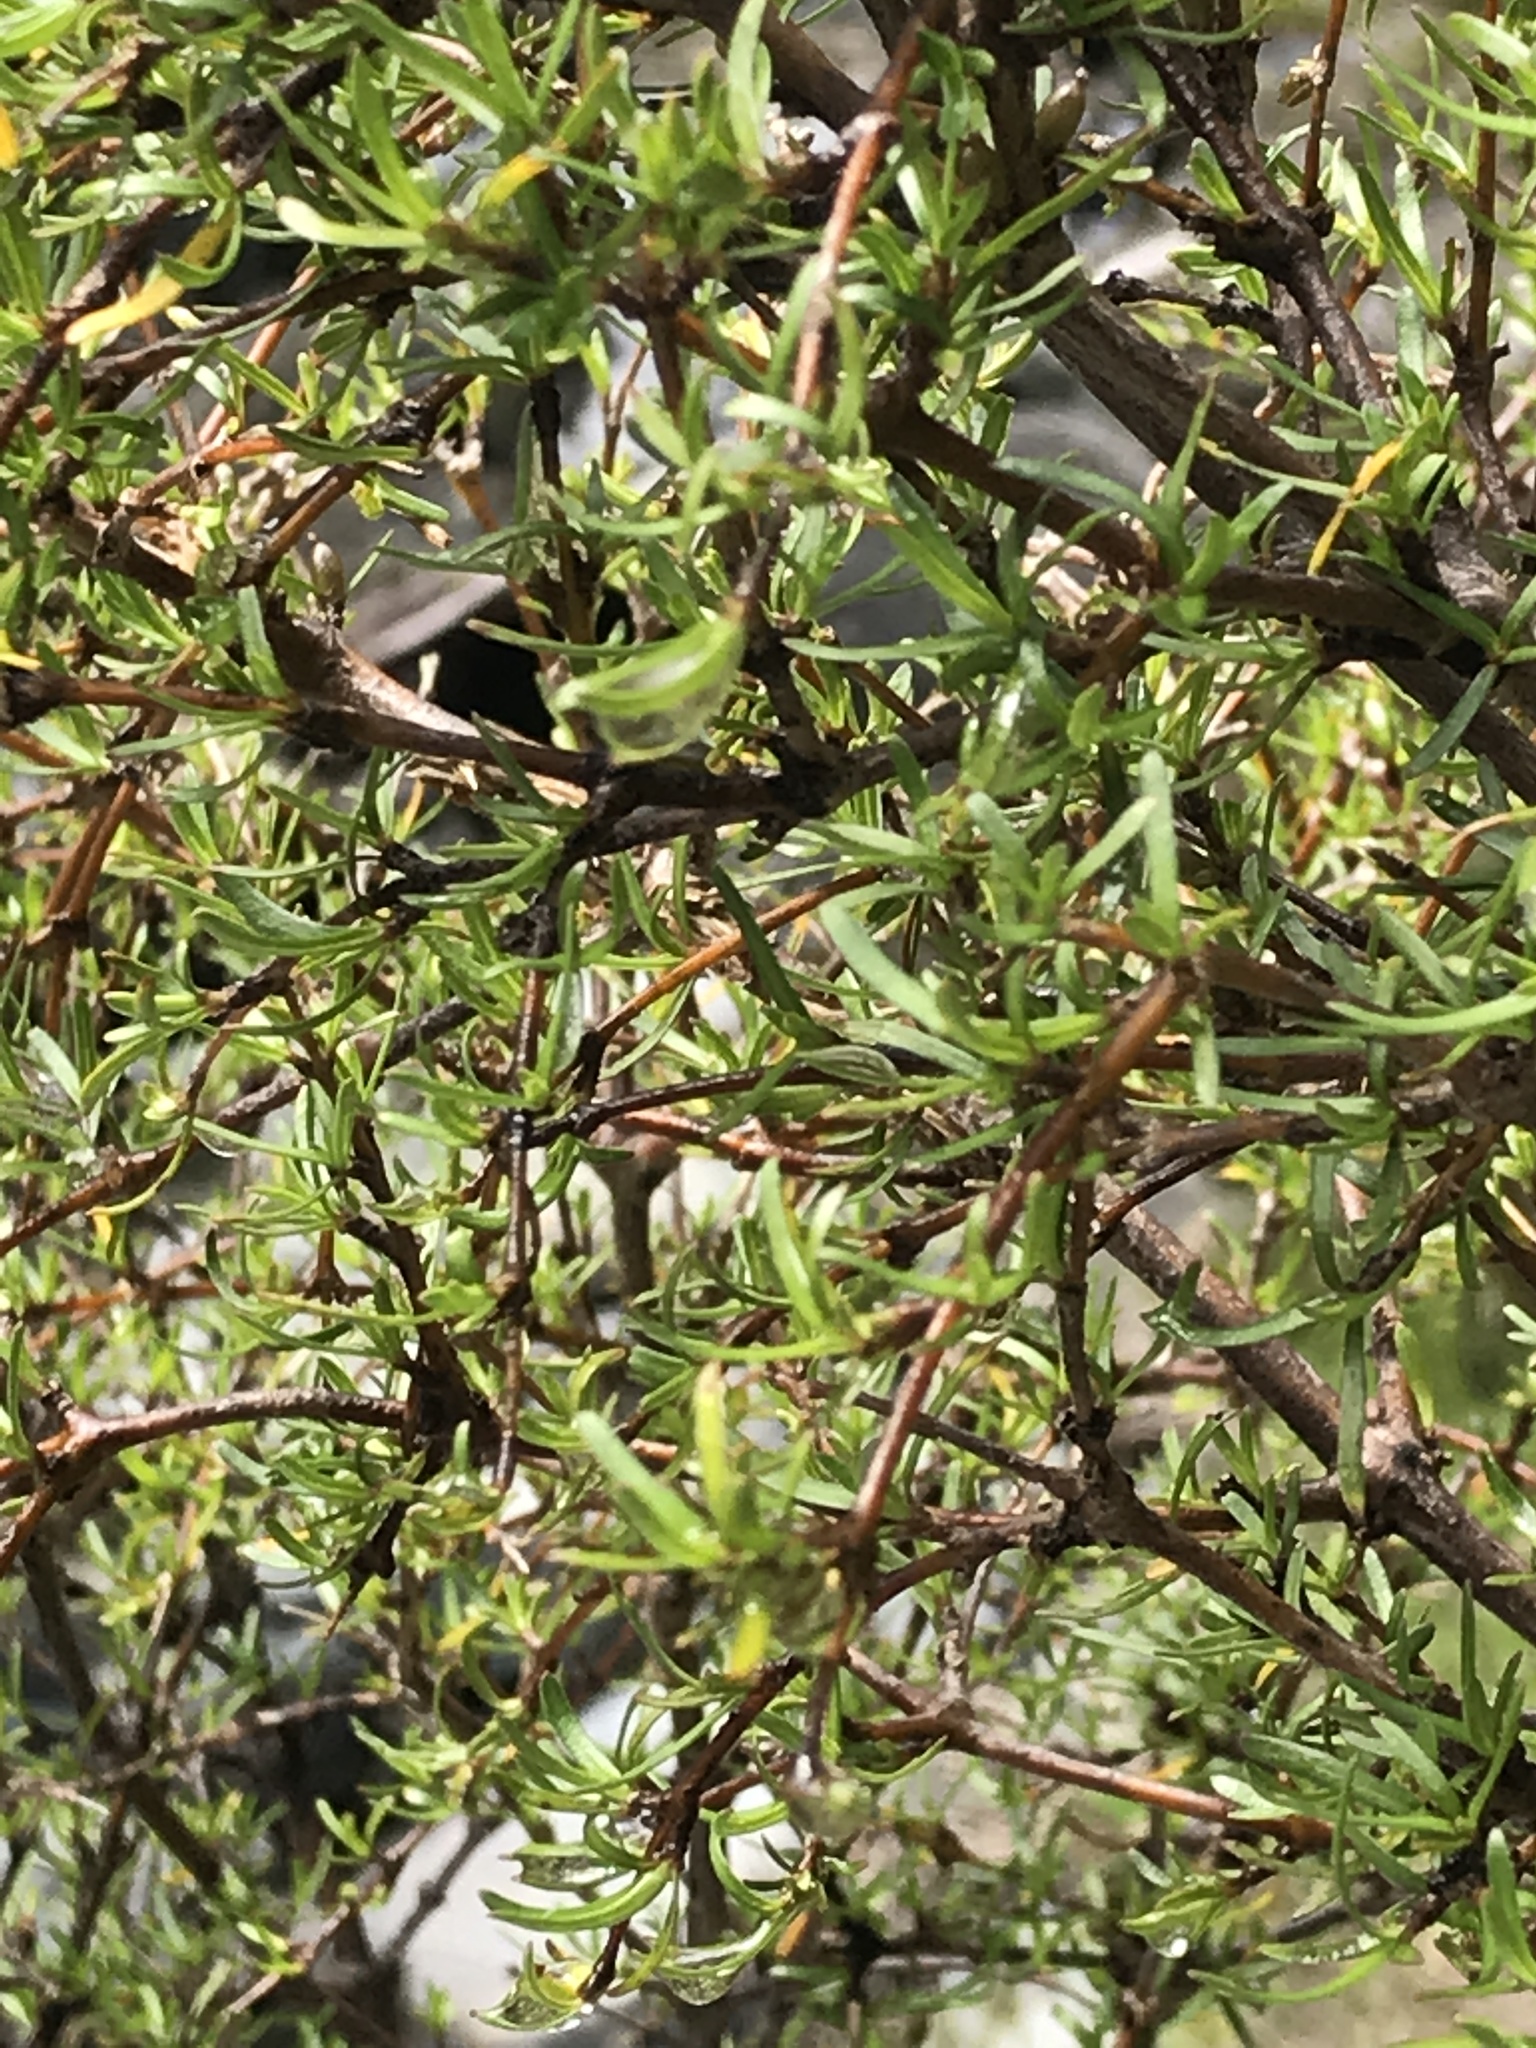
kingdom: Plantae
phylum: Tracheophyta
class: Magnoliopsida
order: Gentianales
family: Rubiaceae
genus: Coprosma
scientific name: Coprosma rugosa
